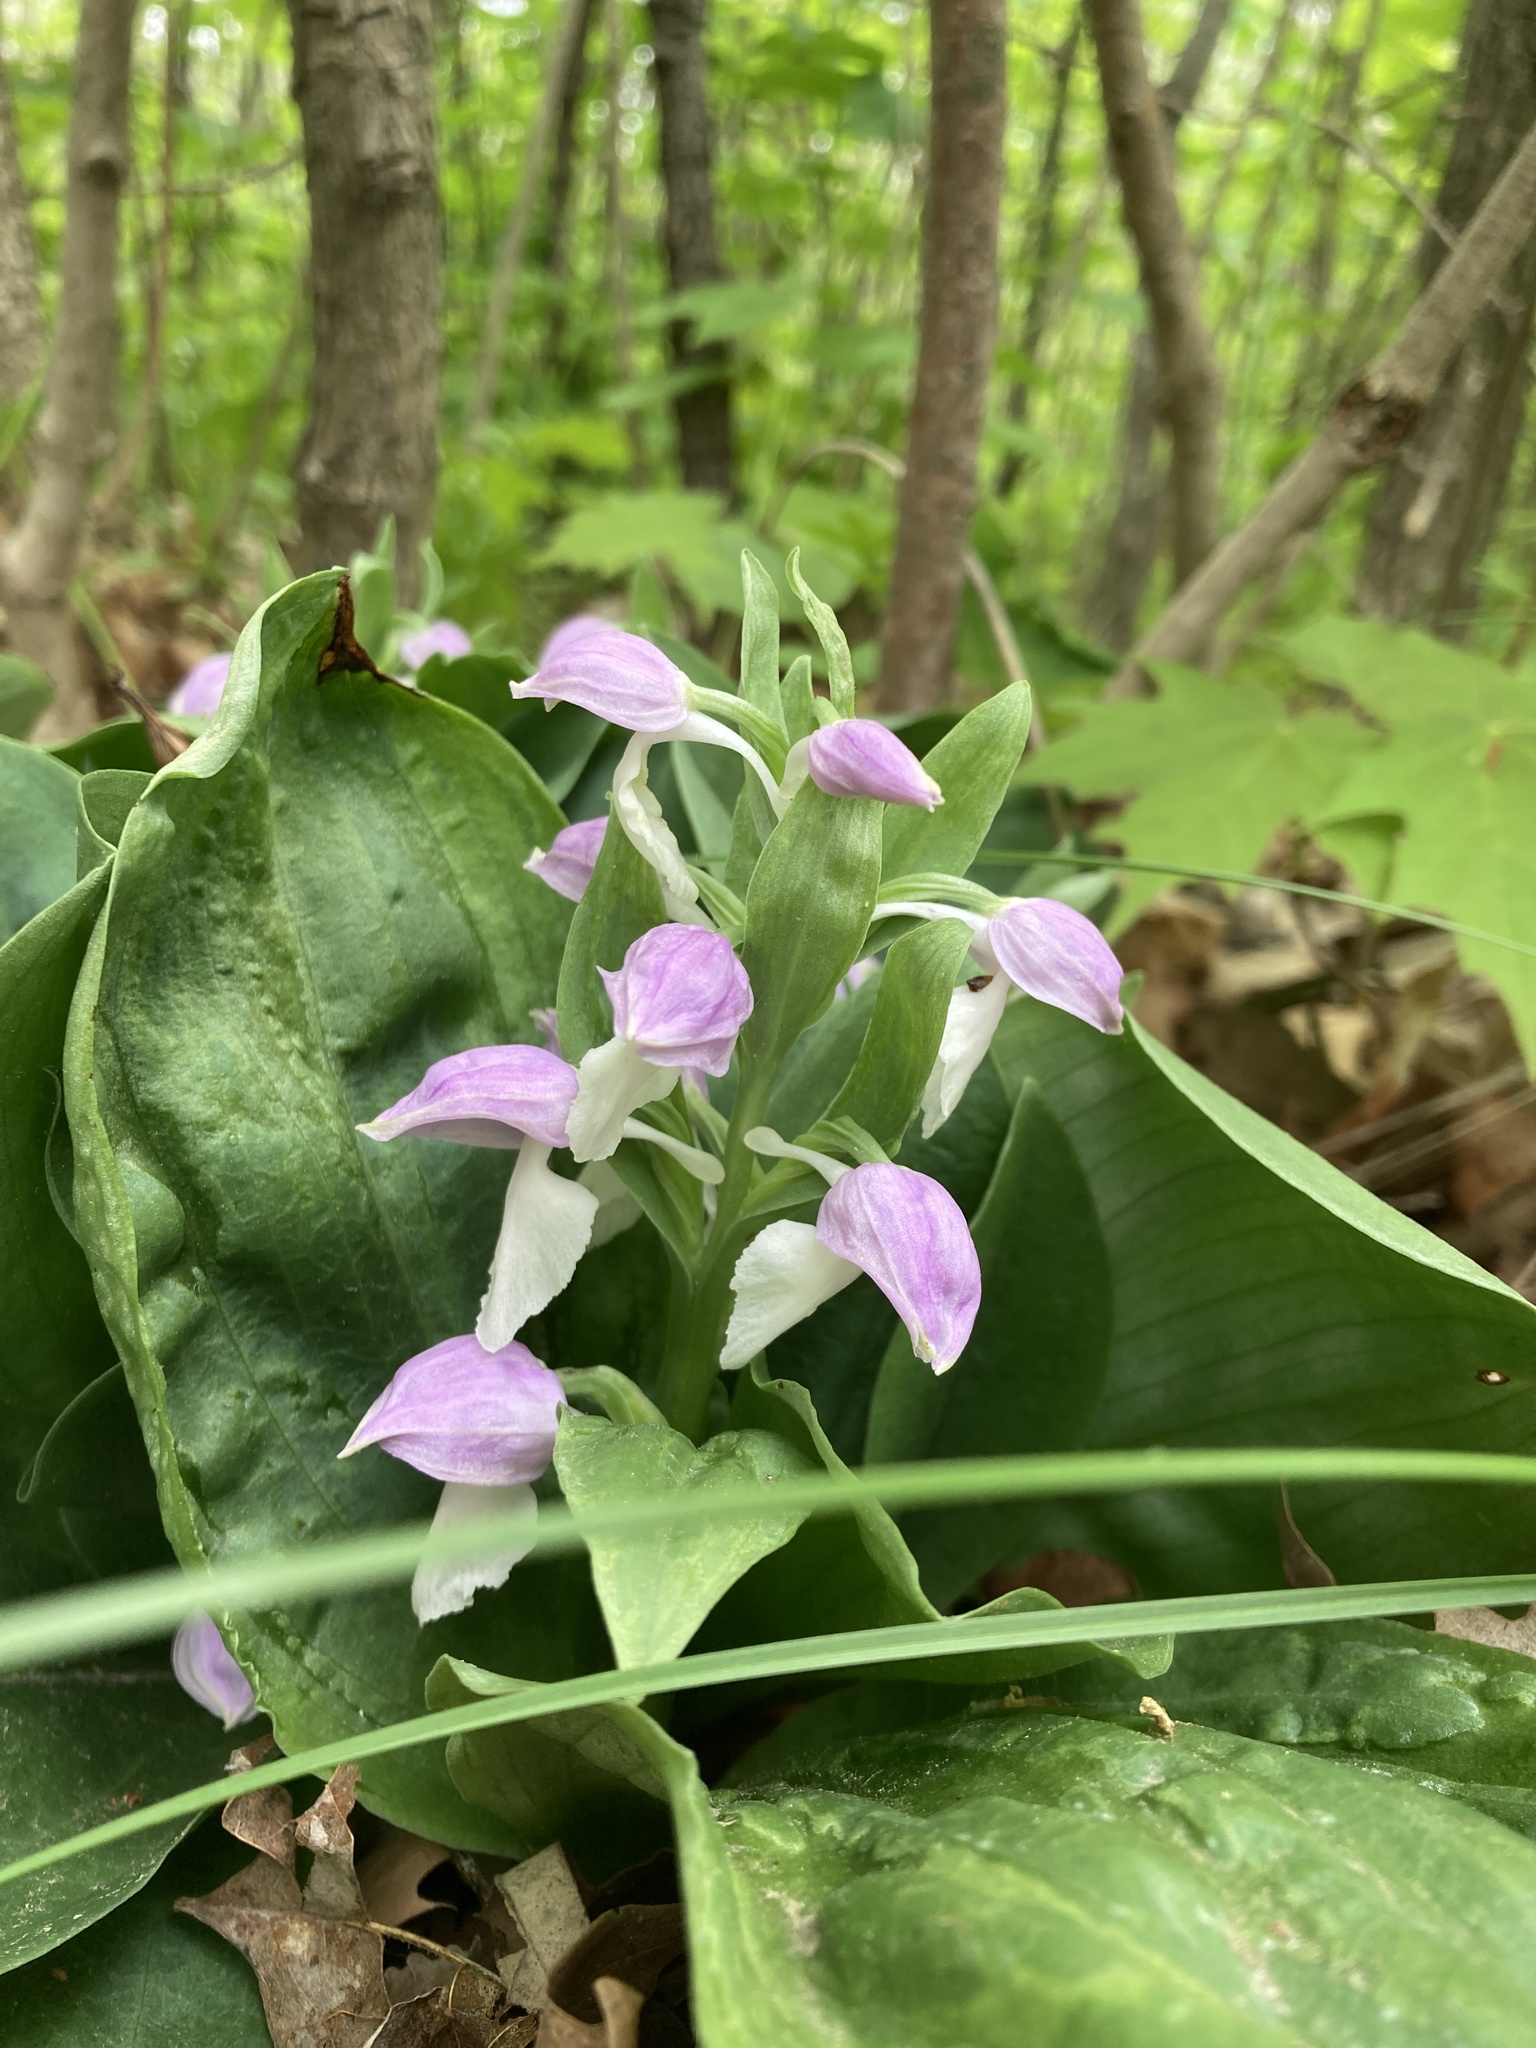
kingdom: Plantae
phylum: Tracheophyta
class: Liliopsida
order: Asparagales
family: Orchidaceae
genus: Galearis
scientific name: Galearis spectabilis
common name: Purple-hooded orchis
